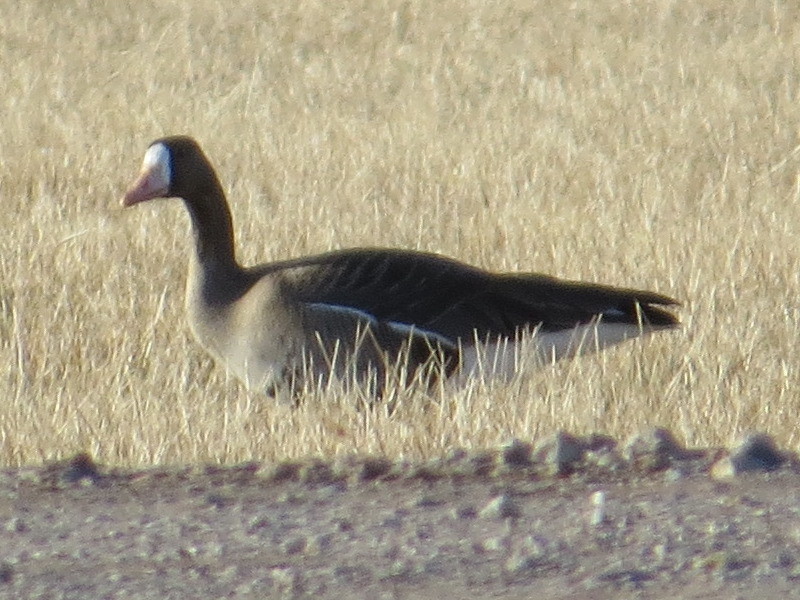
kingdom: Animalia
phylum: Chordata
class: Aves
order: Anseriformes
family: Anatidae
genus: Anser
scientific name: Anser albifrons
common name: Greater white-fronted goose
